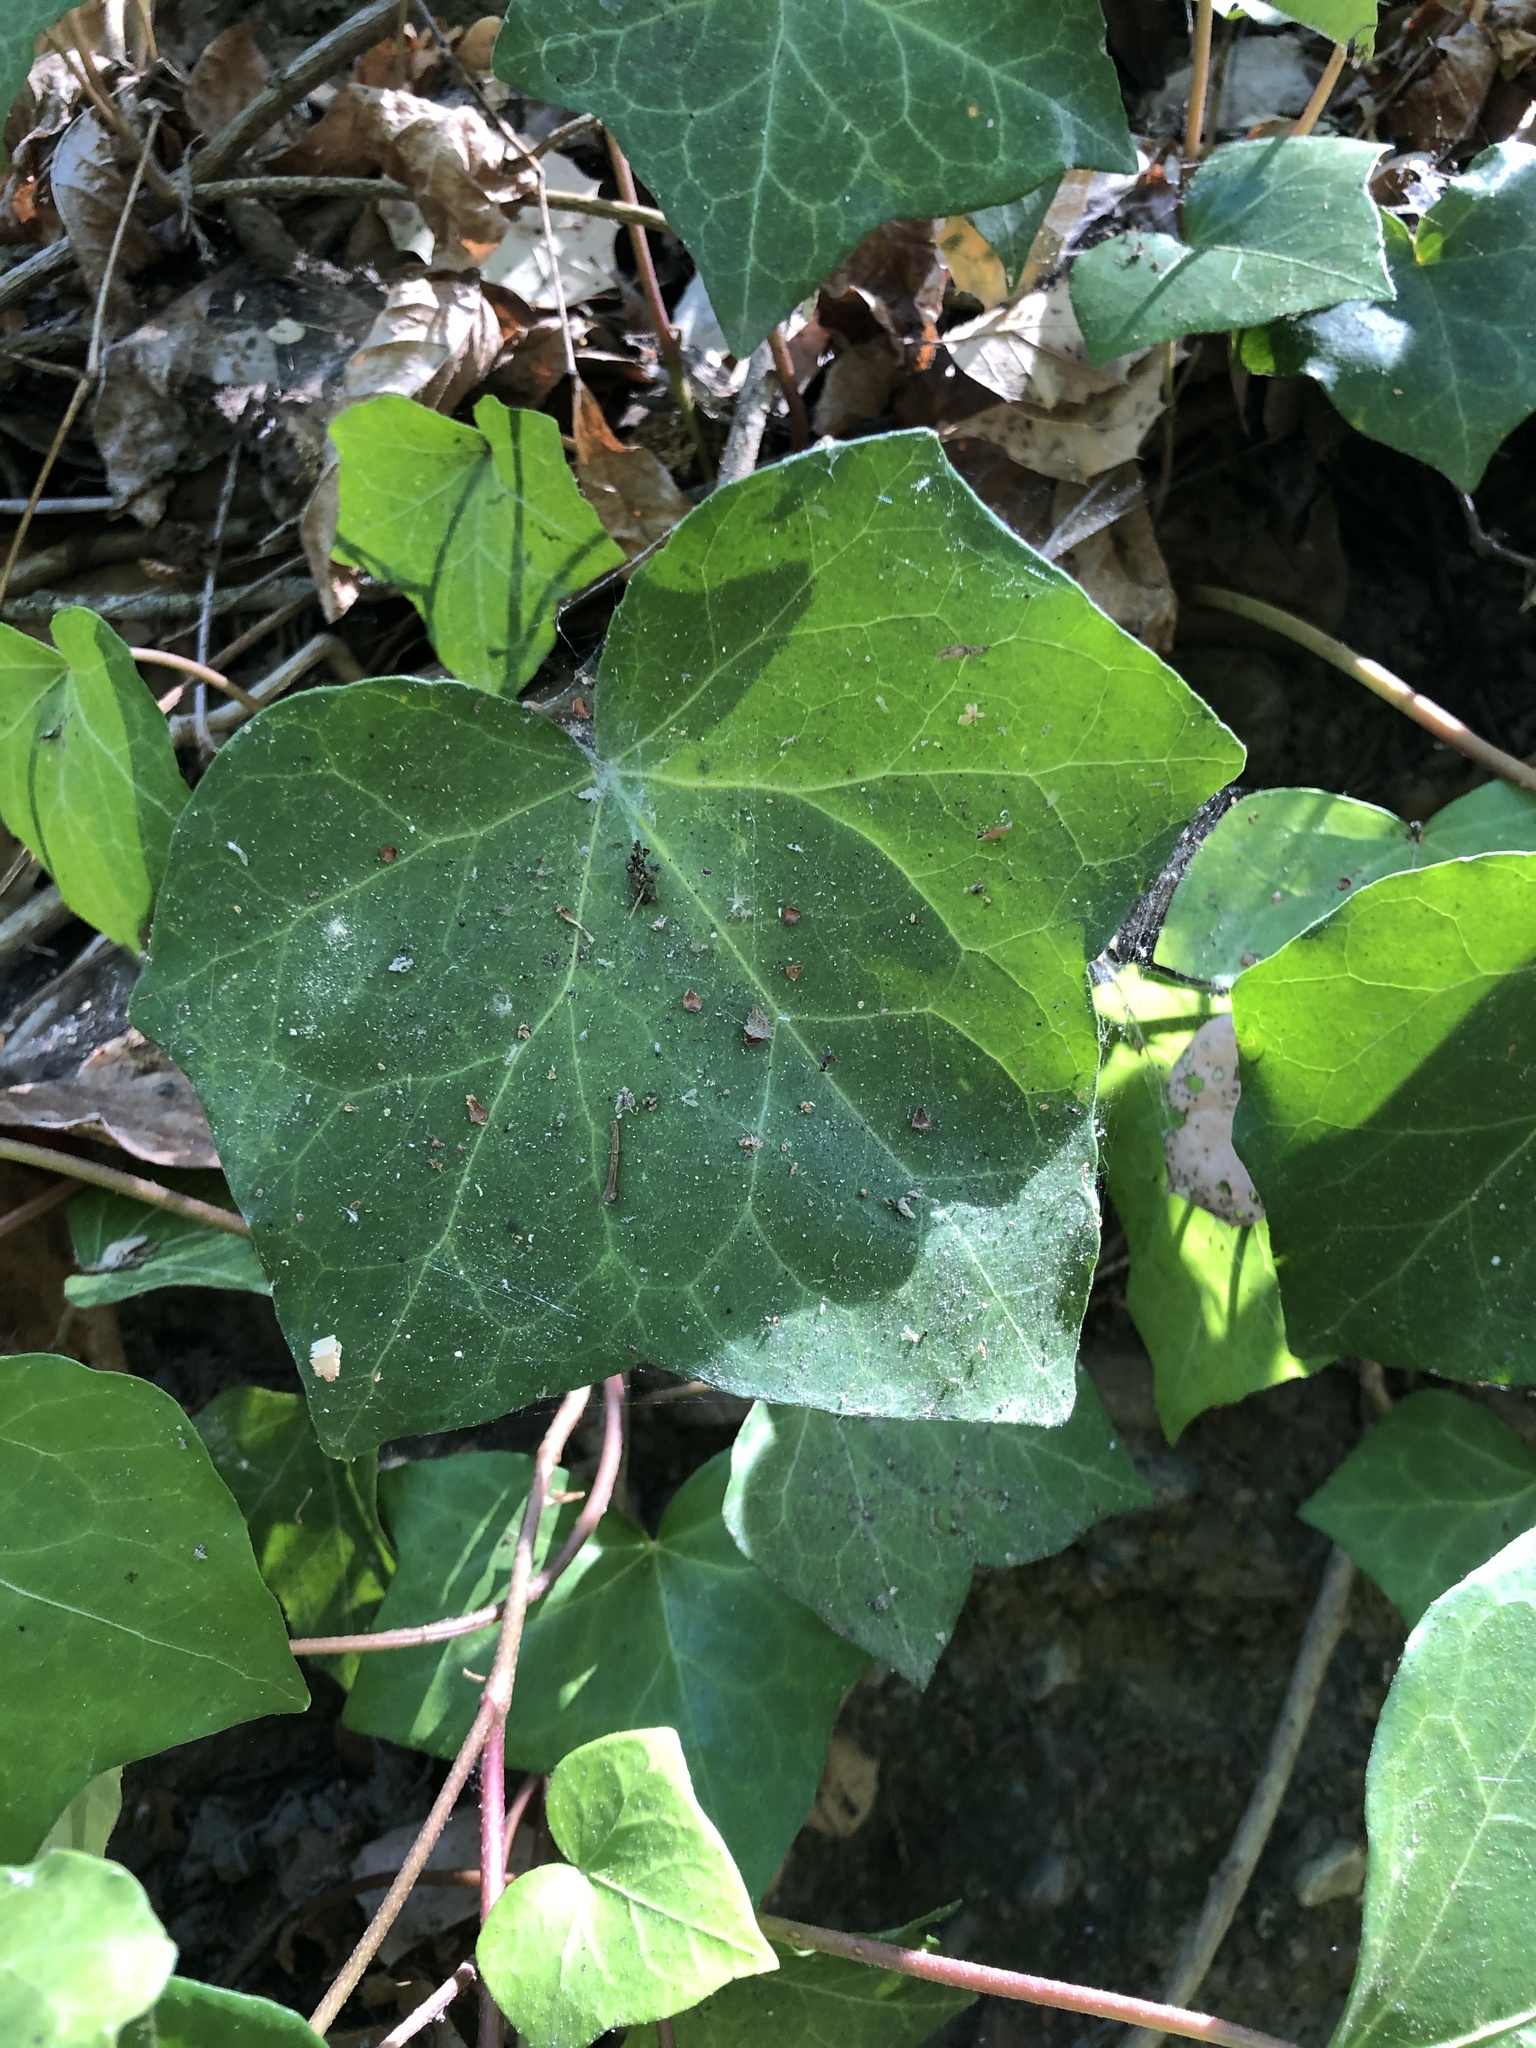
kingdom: Plantae
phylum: Tracheophyta
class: Magnoliopsida
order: Apiales
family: Araliaceae
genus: Hedera
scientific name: Hedera helix
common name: Ivy
